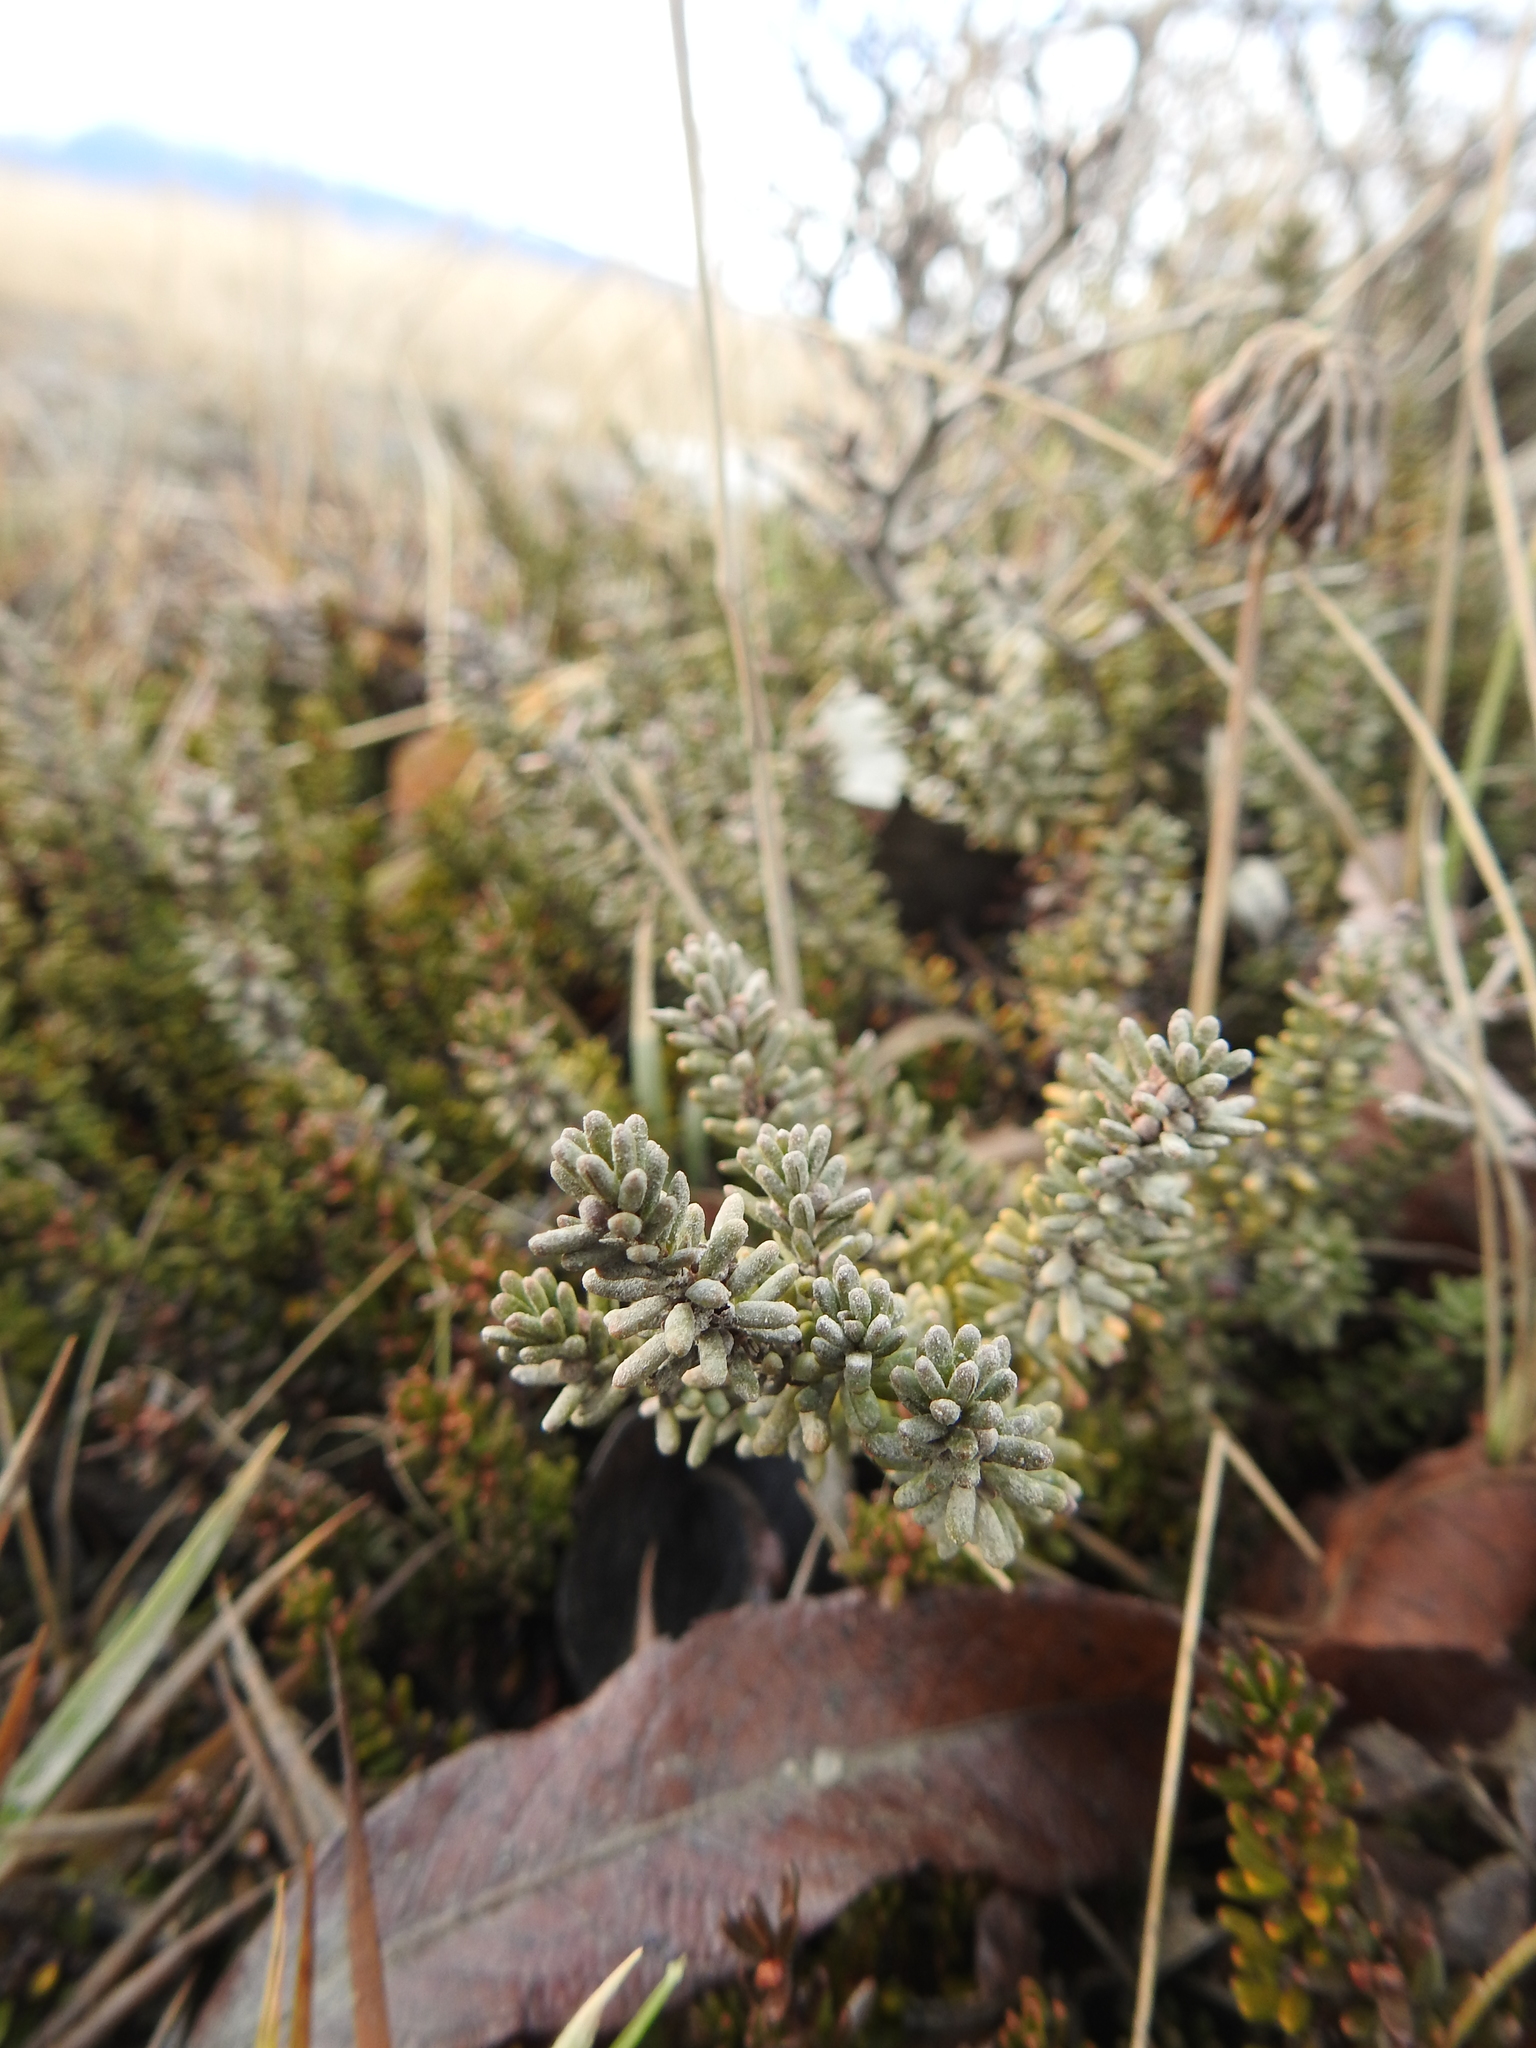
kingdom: Plantae
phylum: Tracheophyta
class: Magnoliopsida
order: Ericales
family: Ericaceae
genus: Empetrum
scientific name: Empetrum rubrum
